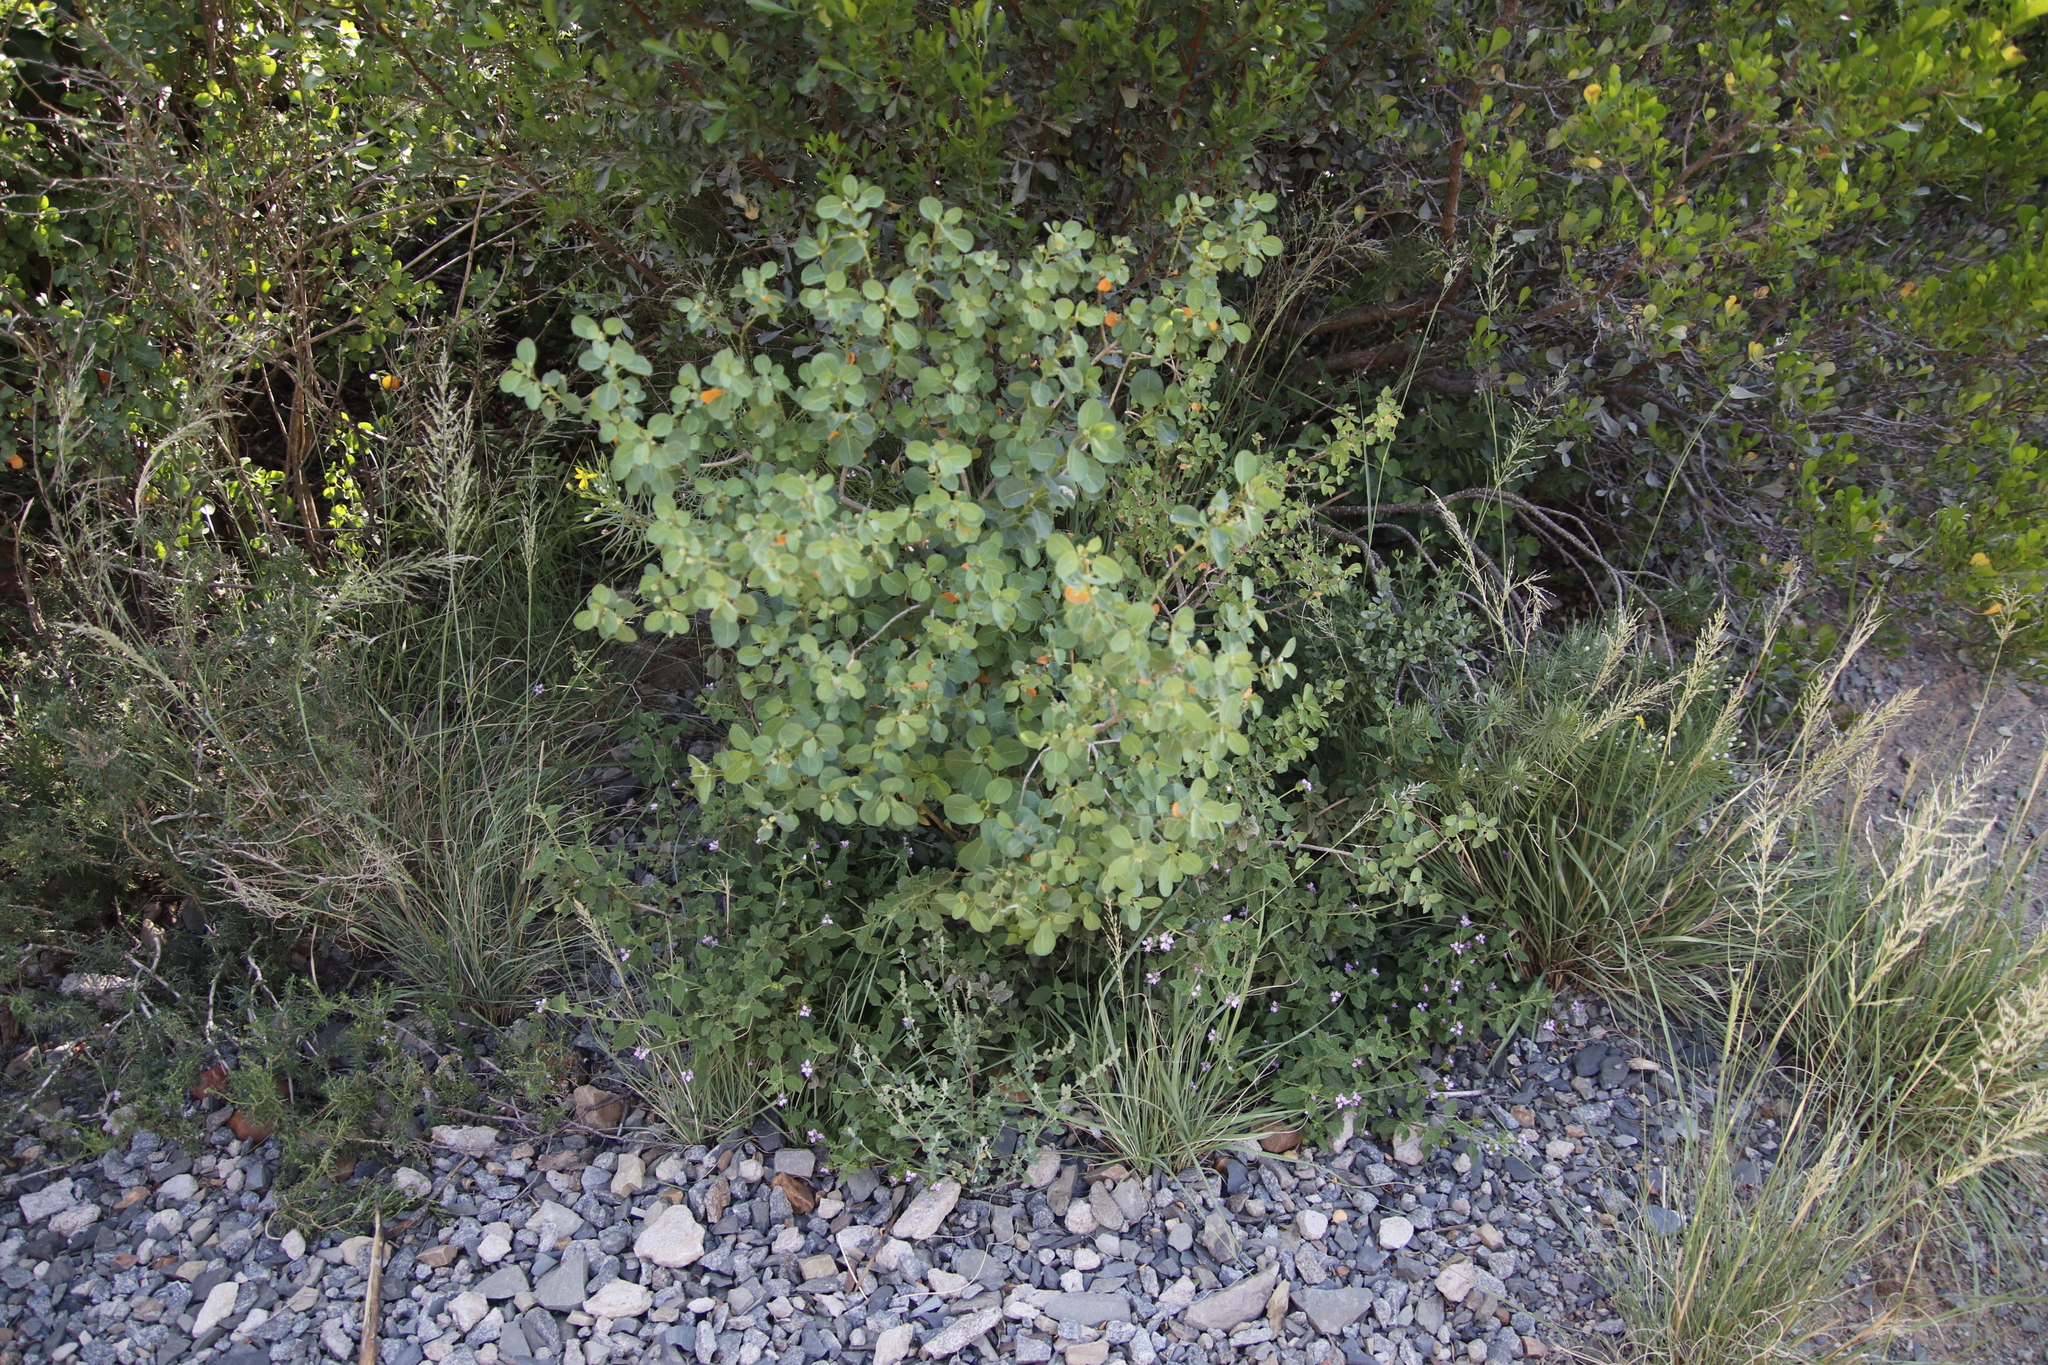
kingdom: Plantae
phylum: Tracheophyta
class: Magnoliopsida
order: Malpighiales
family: Peraceae
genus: Clutia
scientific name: Clutia pulchella
